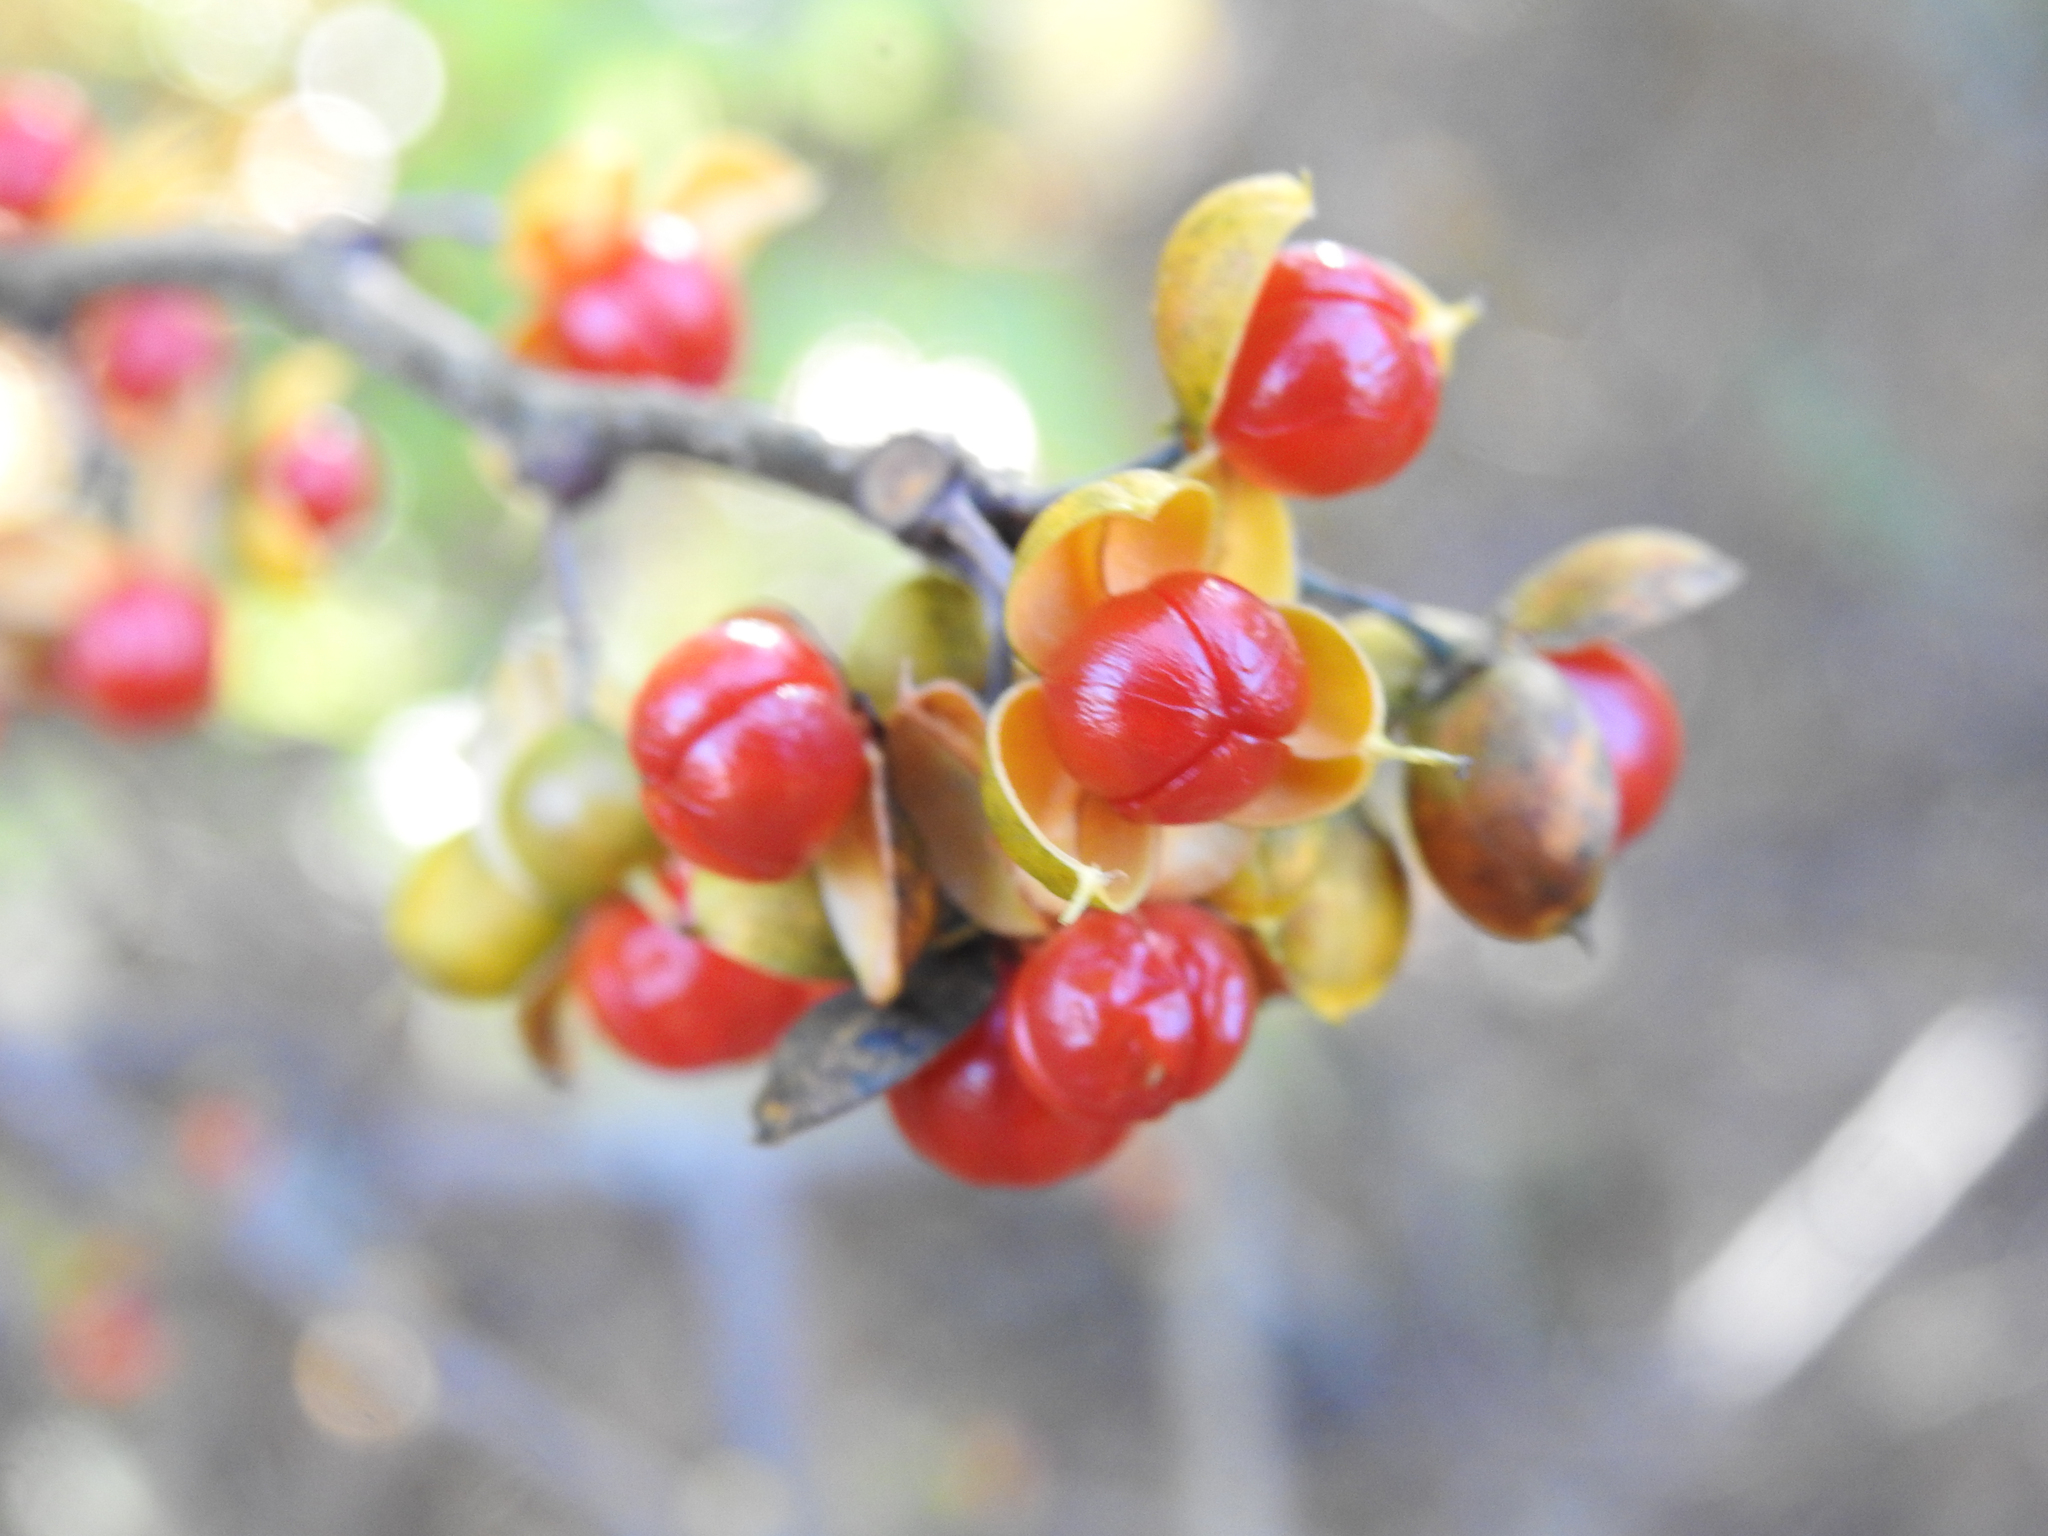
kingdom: Plantae
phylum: Tracheophyta
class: Magnoliopsida
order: Celastrales
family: Celastraceae
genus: Celastrus
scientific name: Celastrus orbiculatus
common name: Oriental bittersweet
